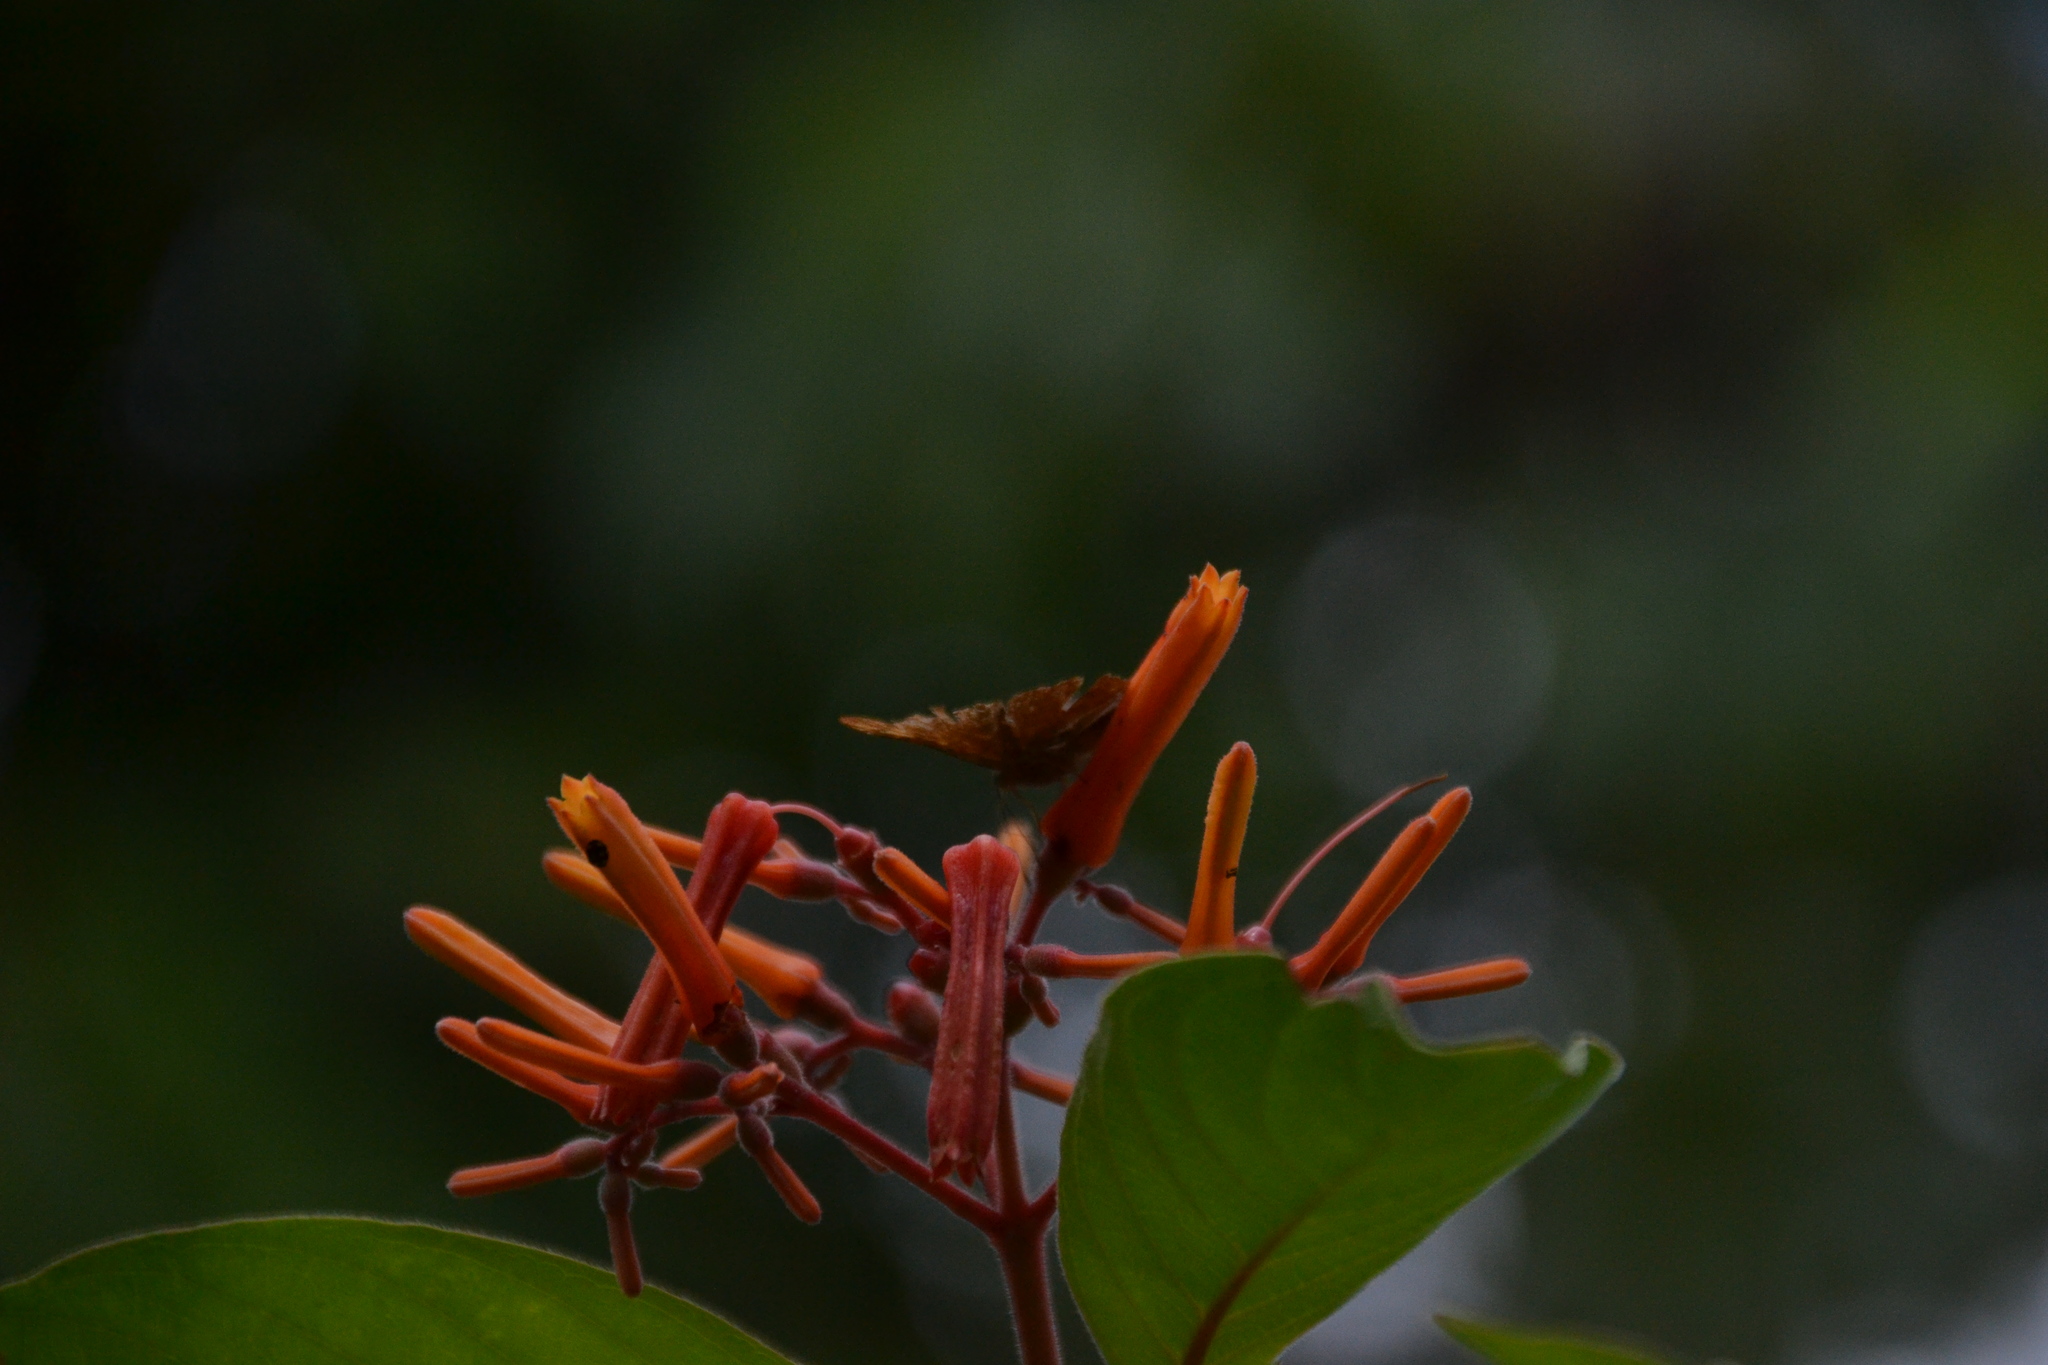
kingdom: Plantae
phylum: Tracheophyta
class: Magnoliopsida
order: Gentianales
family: Rubiaceae
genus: Hamelia
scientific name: Hamelia patens
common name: Redhead
